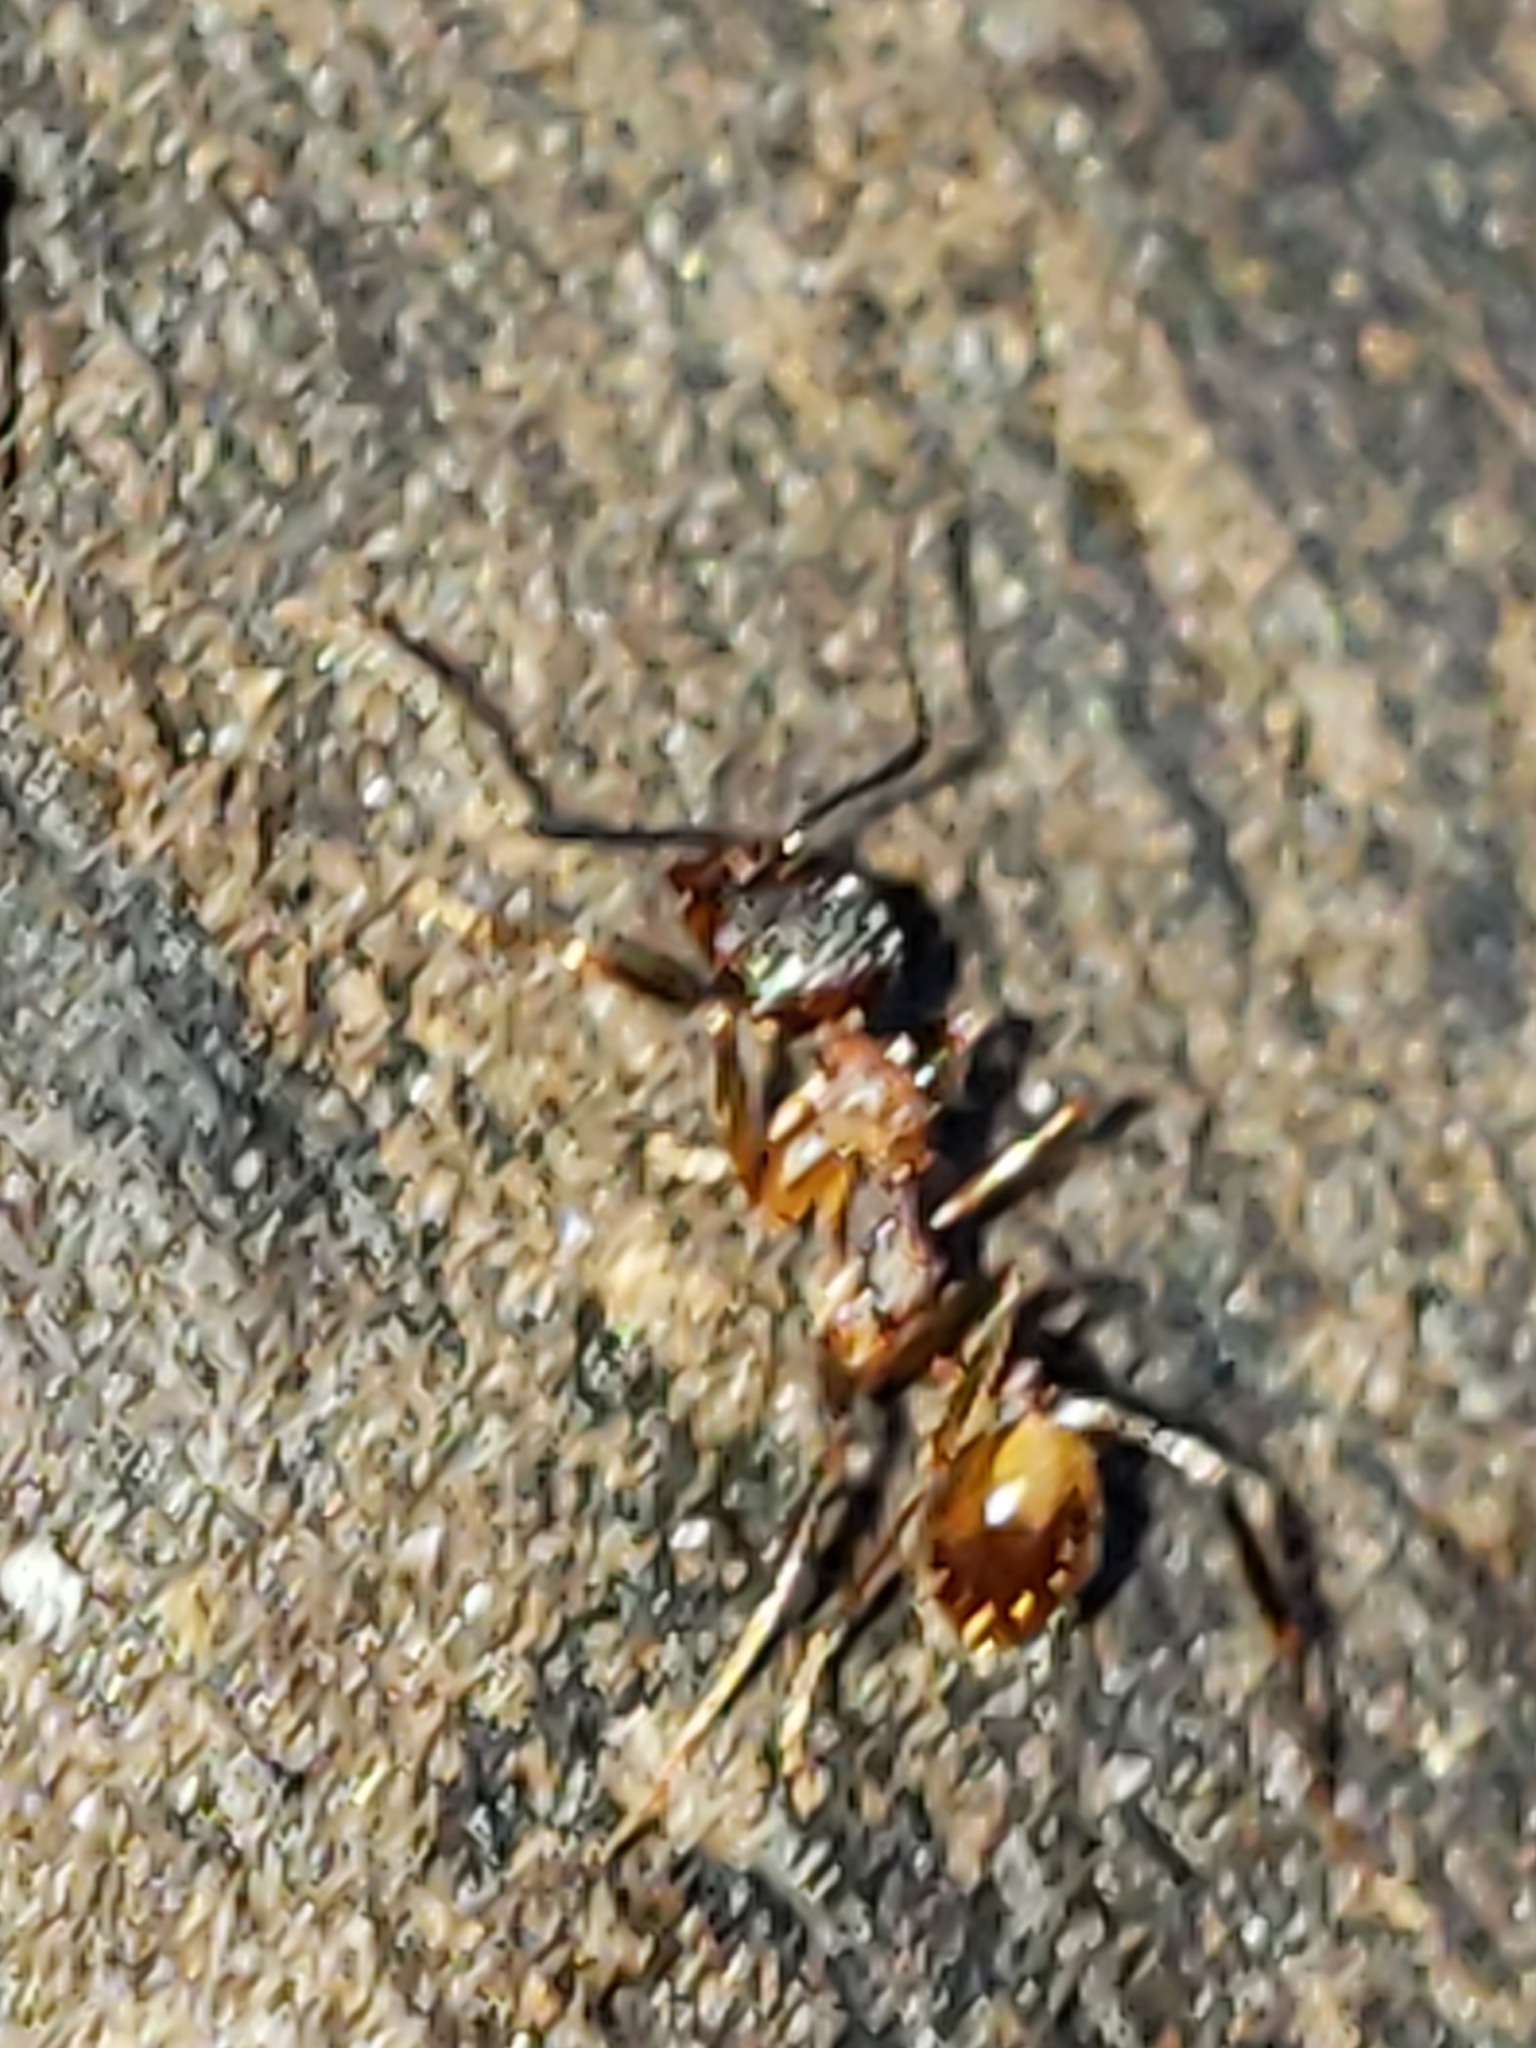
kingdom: Animalia
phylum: Arthropoda
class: Insecta
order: Hymenoptera
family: Formicidae
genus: Aphaenogaster
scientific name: Aphaenogaster fulva
